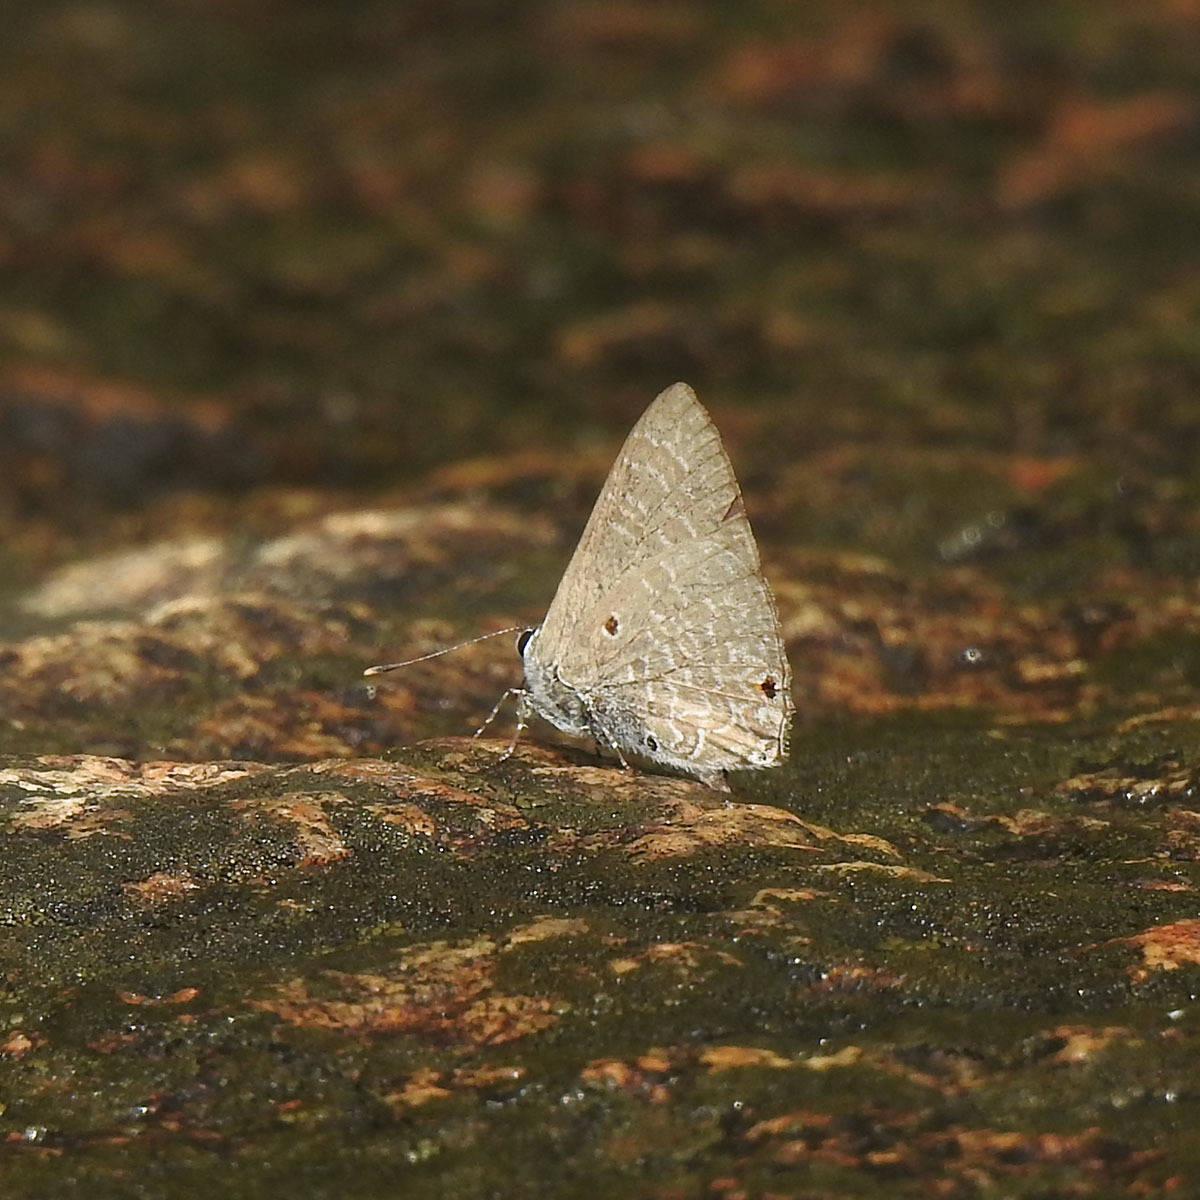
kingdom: Animalia
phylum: Arthropoda
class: Insecta
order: Lepidoptera
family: Lycaenidae
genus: Anthene
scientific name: Anthene lycaenina
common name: Pointed ciliate blue
